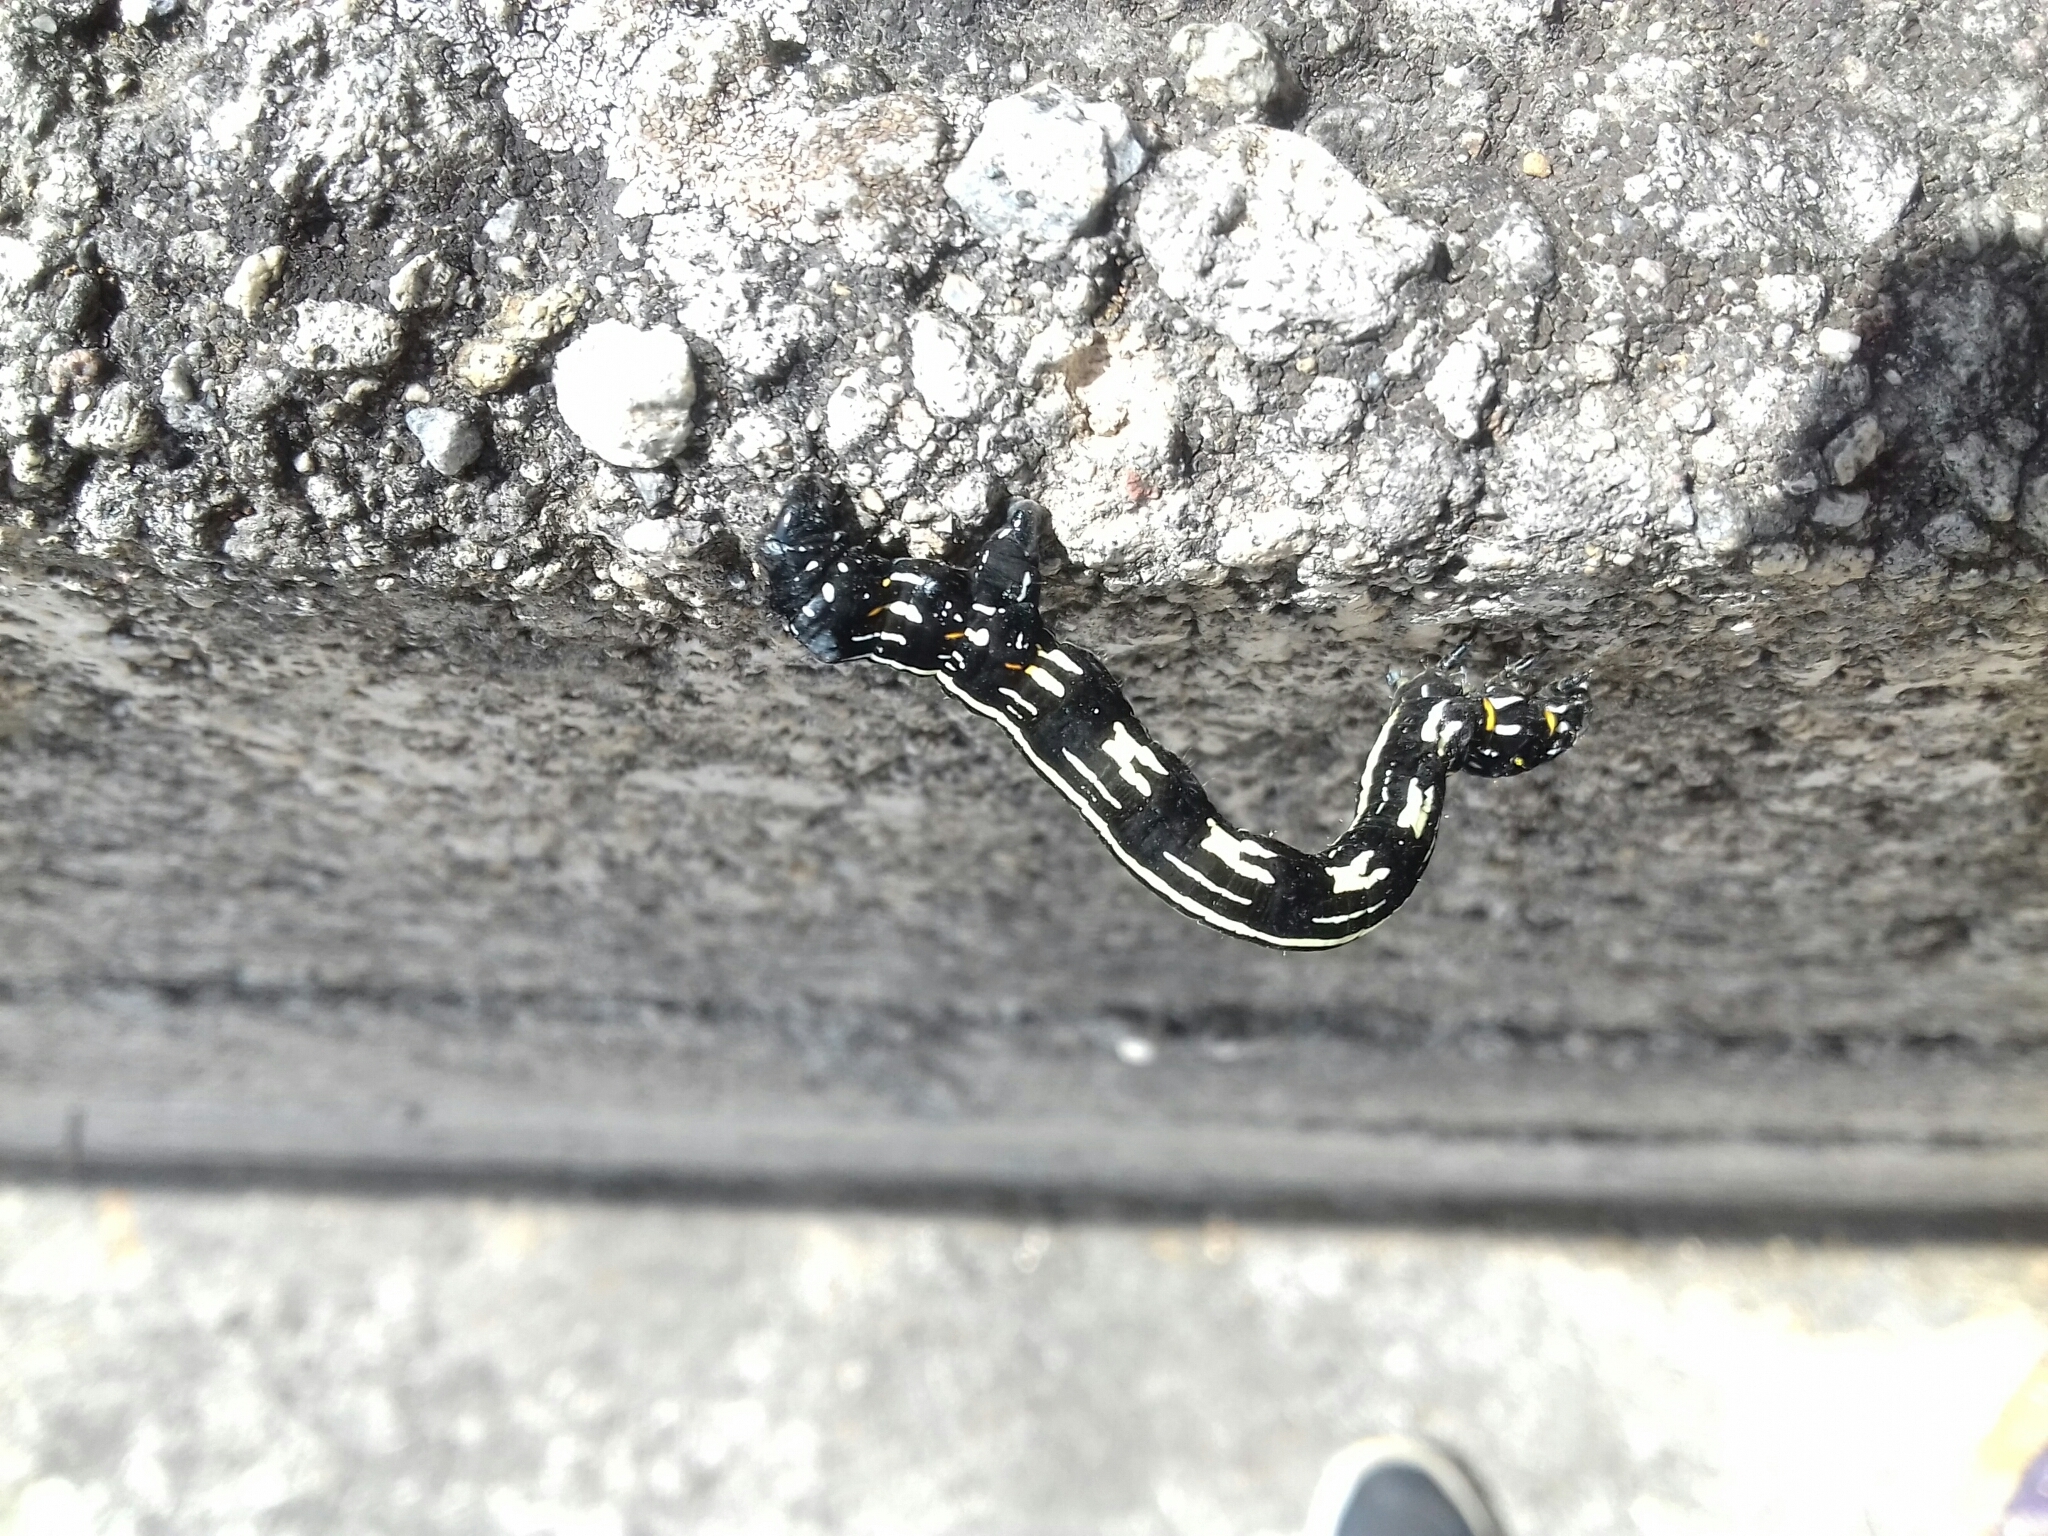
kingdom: Animalia
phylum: Arthropoda
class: Insecta
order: Lepidoptera
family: Geometridae
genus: Acronyctodes
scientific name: Acronyctodes mexicanaria
